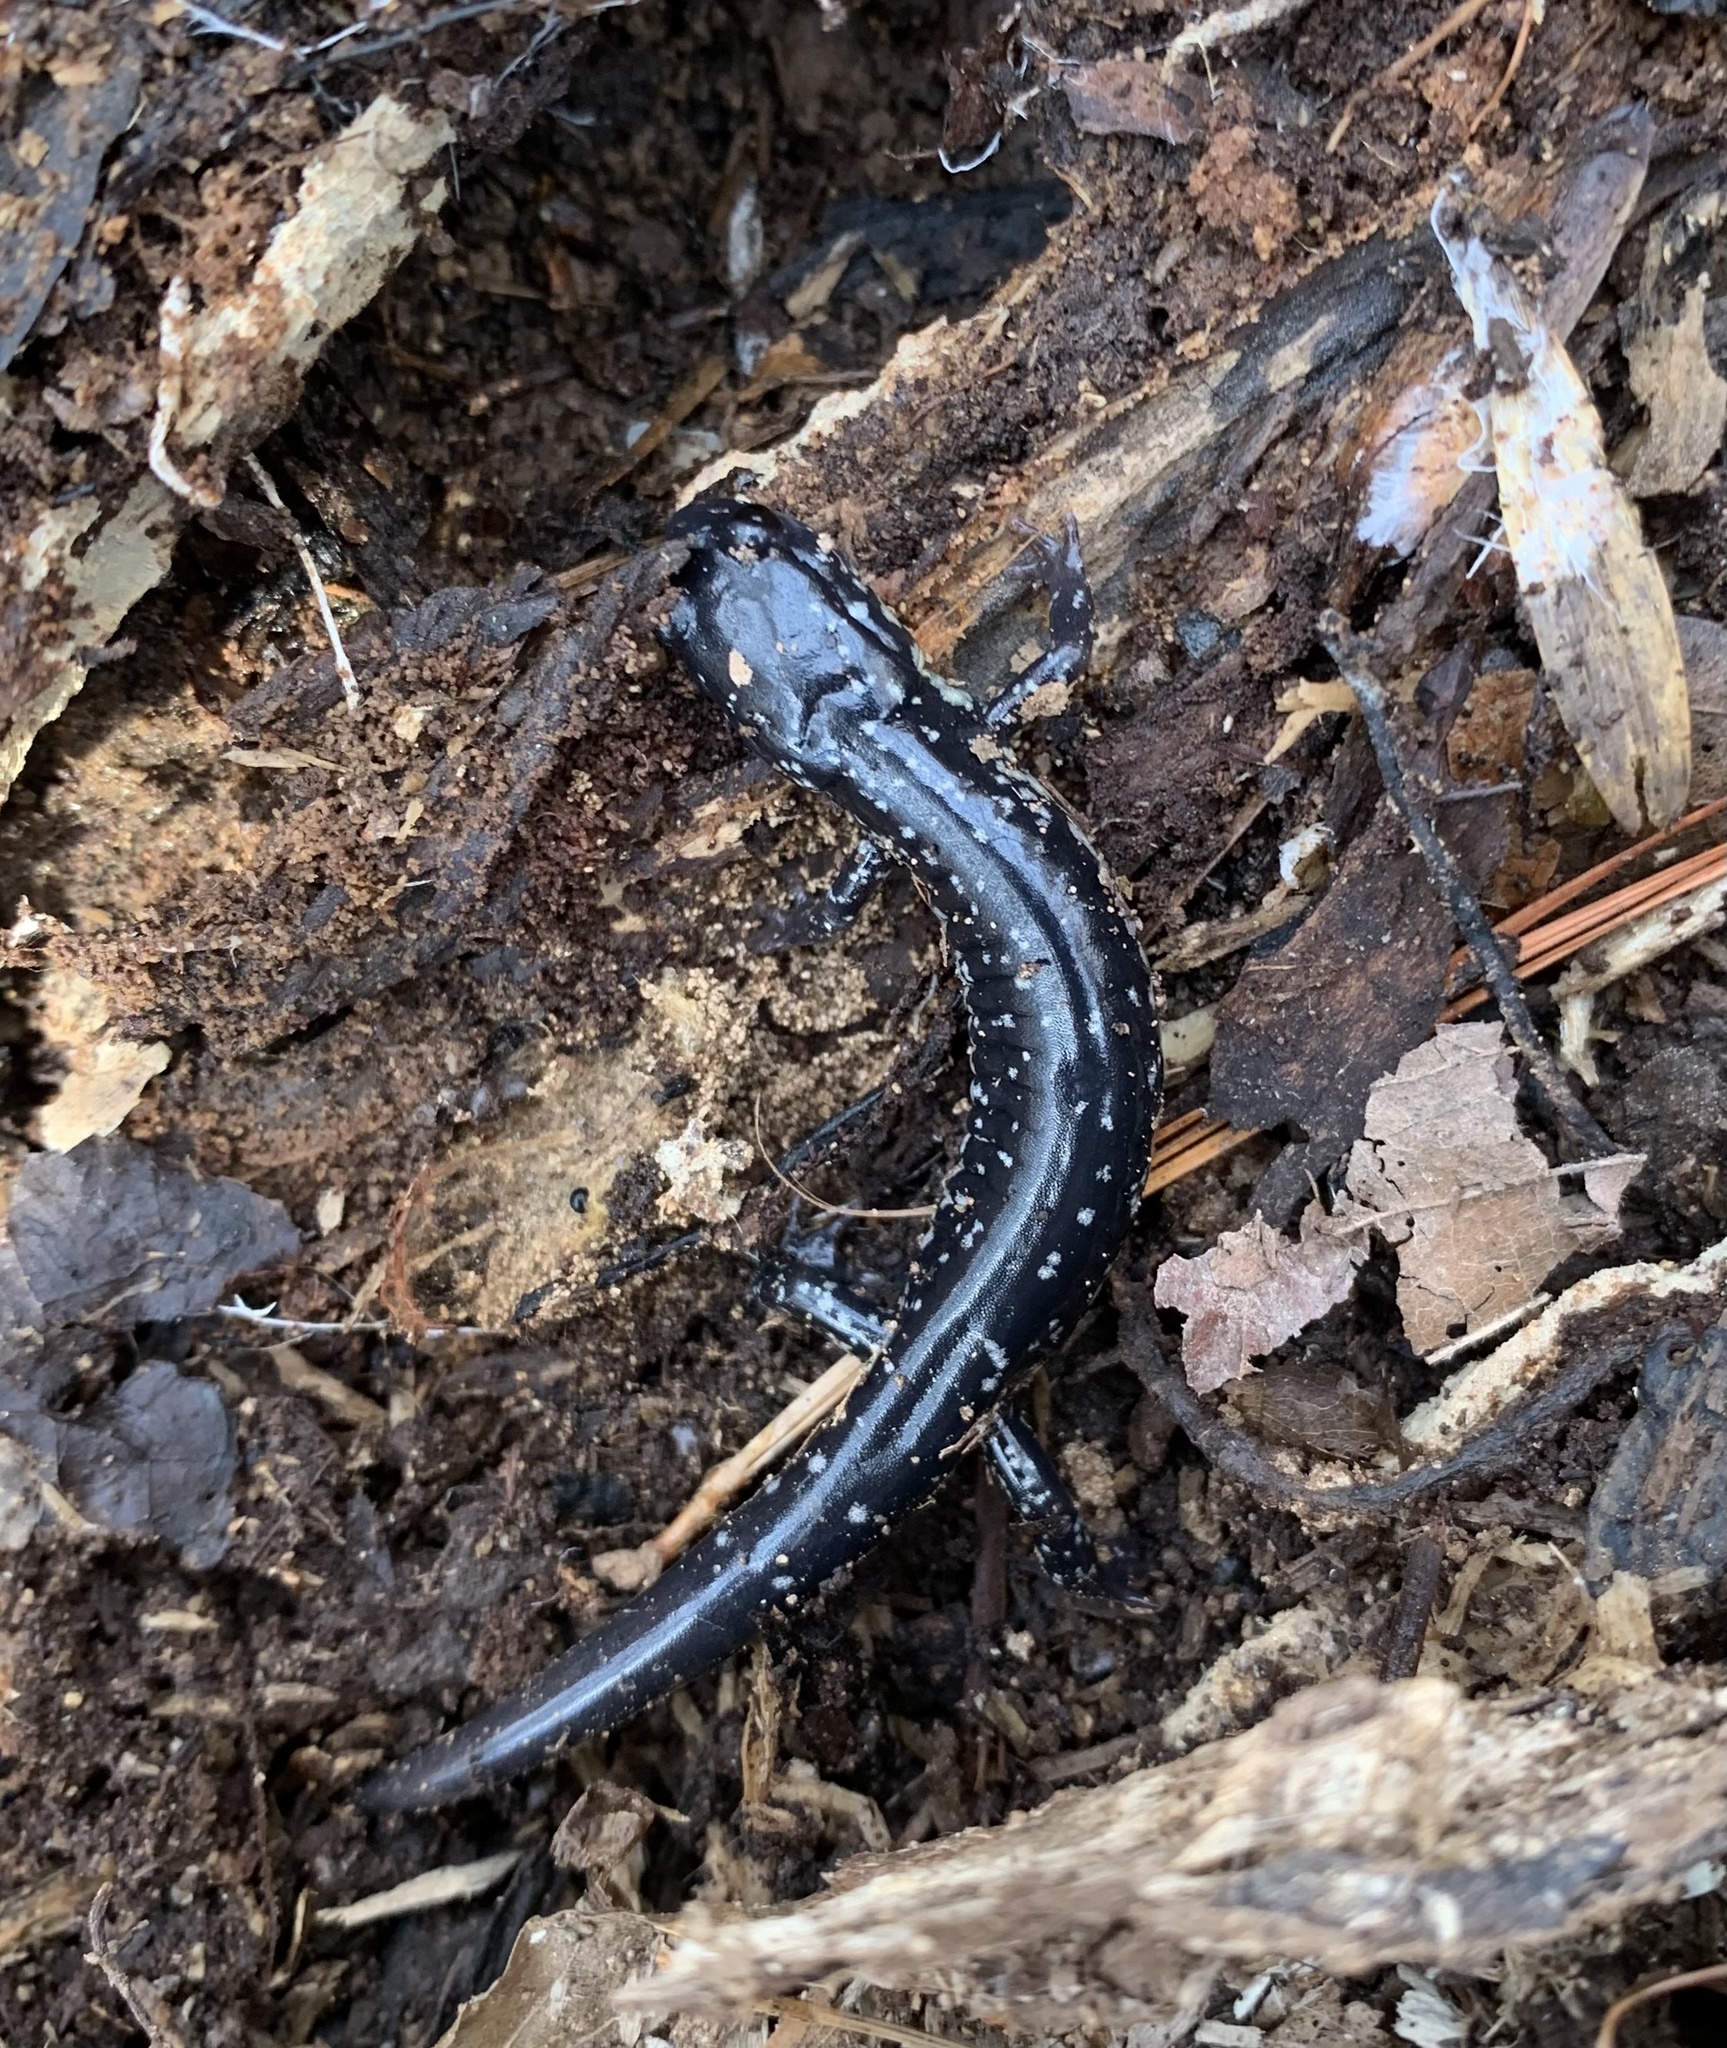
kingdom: Animalia
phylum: Chordata
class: Amphibia
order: Caudata
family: Plethodontidae
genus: Plethodon
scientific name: Plethodon cylindraceus
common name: White-spotted slimy salamander
